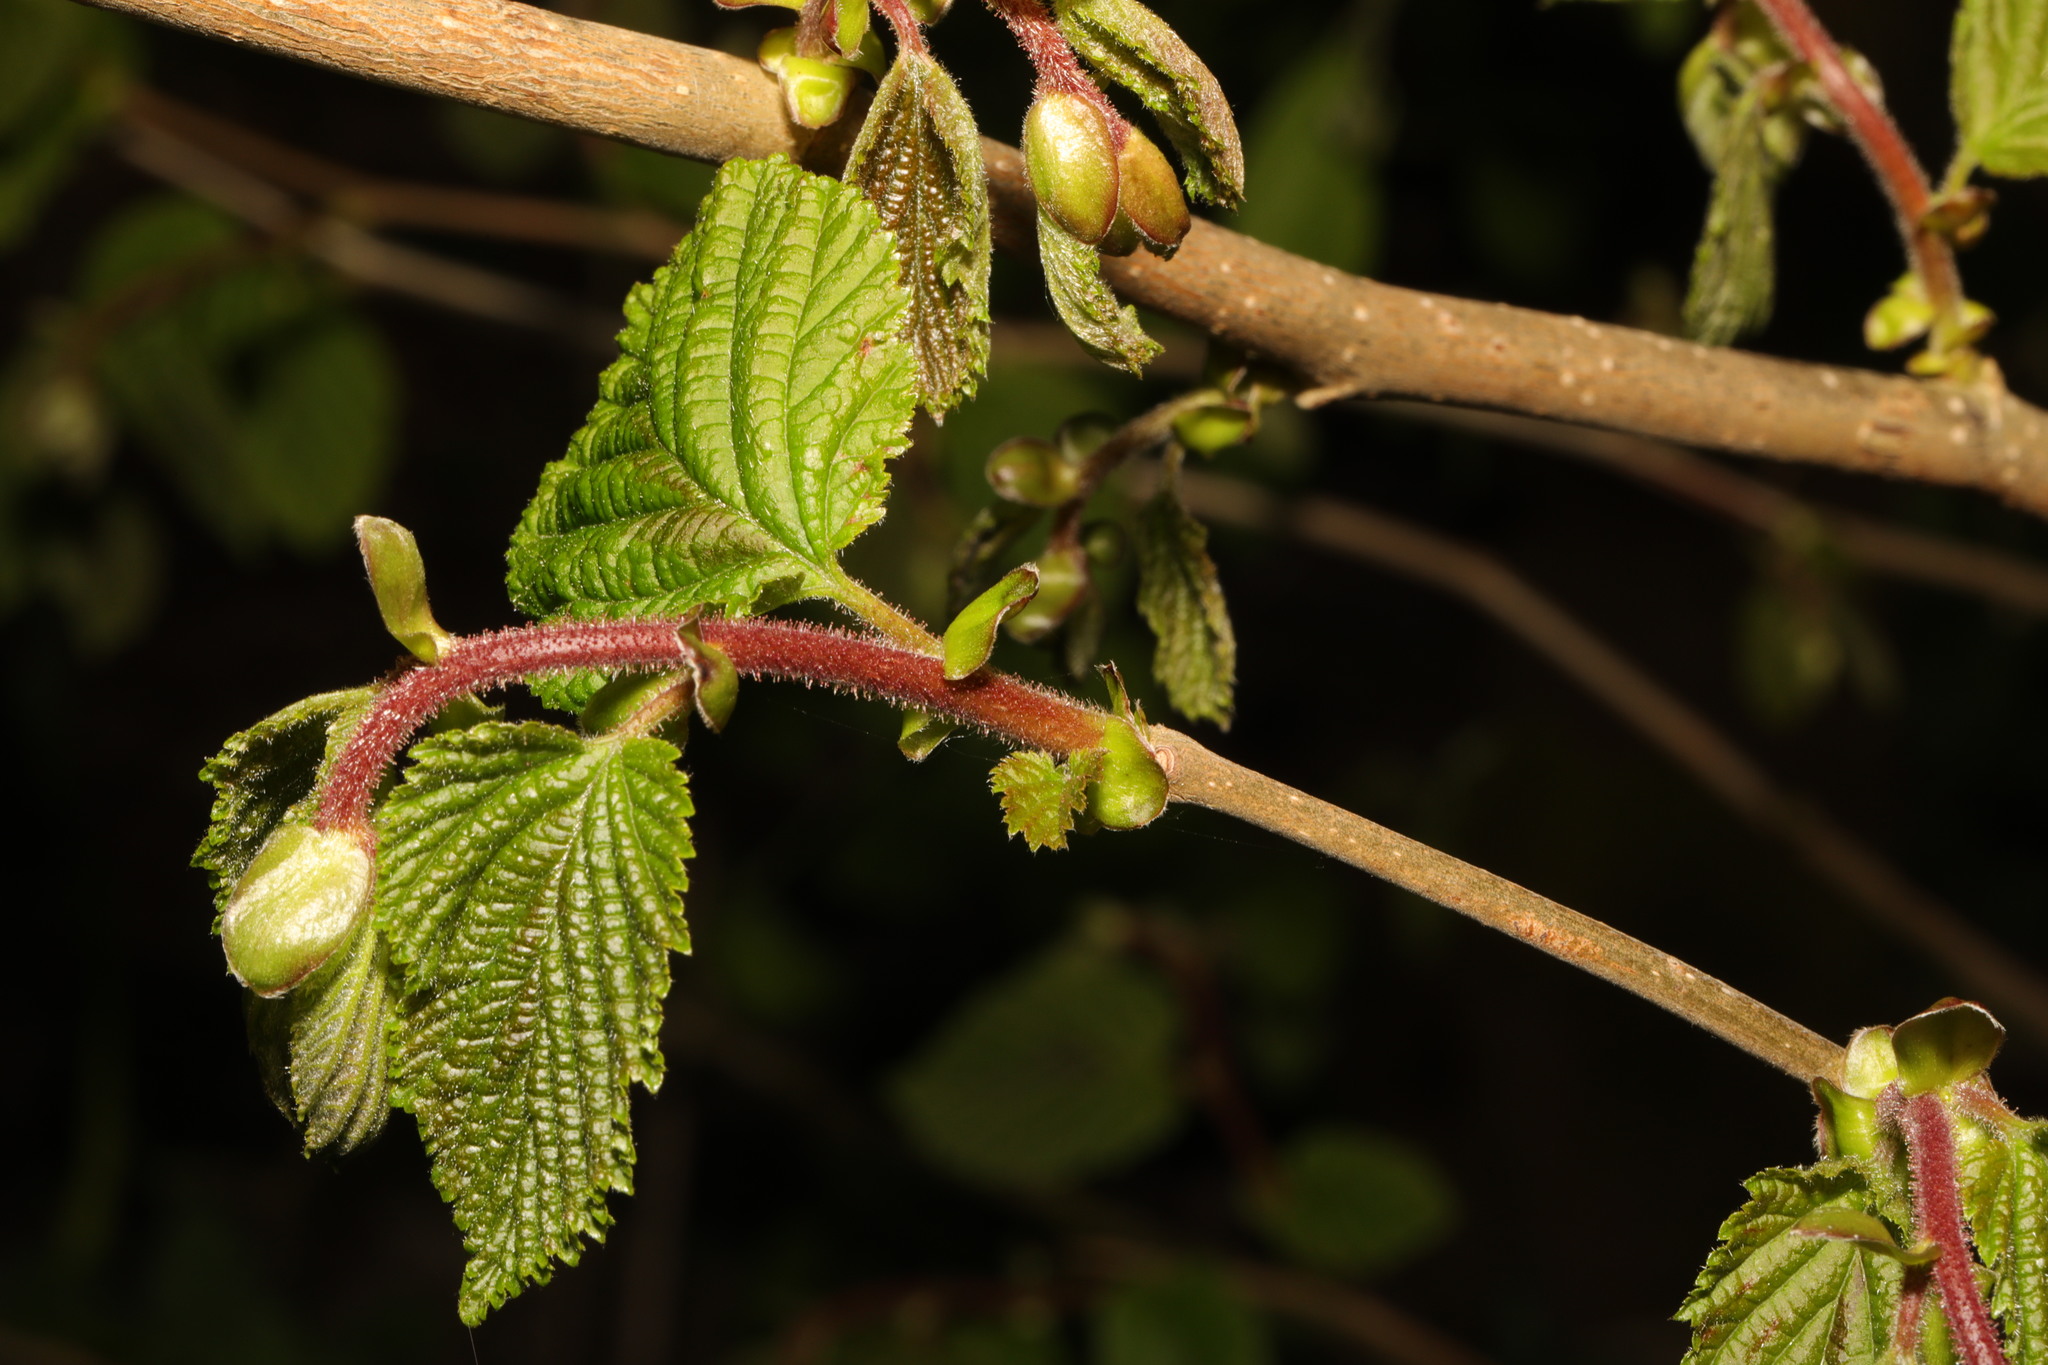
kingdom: Plantae
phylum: Tracheophyta
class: Magnoliopsida
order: Fagales
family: Betulaceae
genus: Corylus
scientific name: Corylus avellana
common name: European hazel
